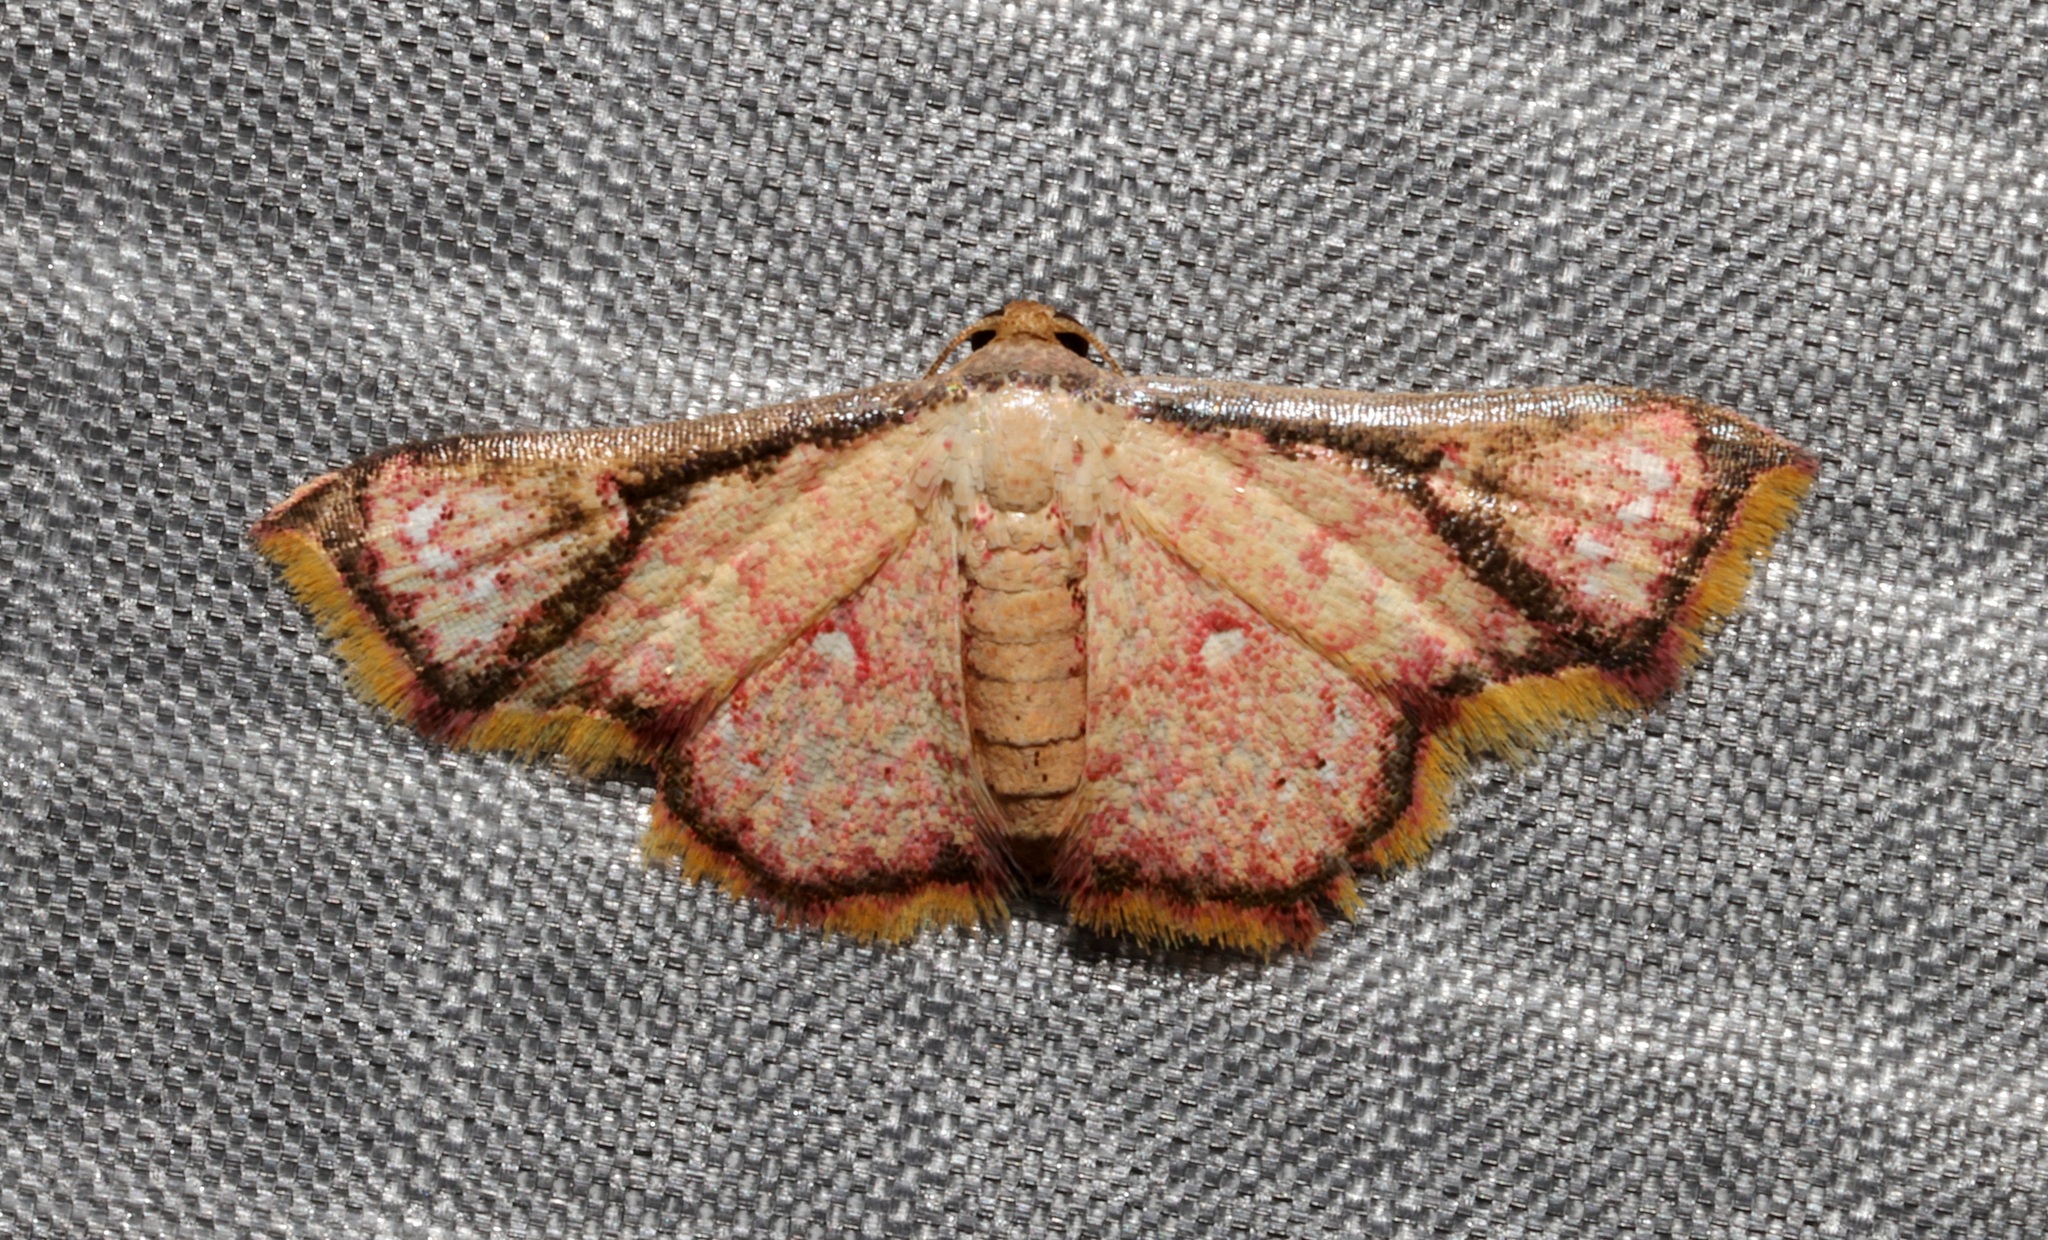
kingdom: Animalia
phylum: Arthropoda
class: Insecta
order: Lepidoptera
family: Noctuidae
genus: Enispa
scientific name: Enispa elataria
